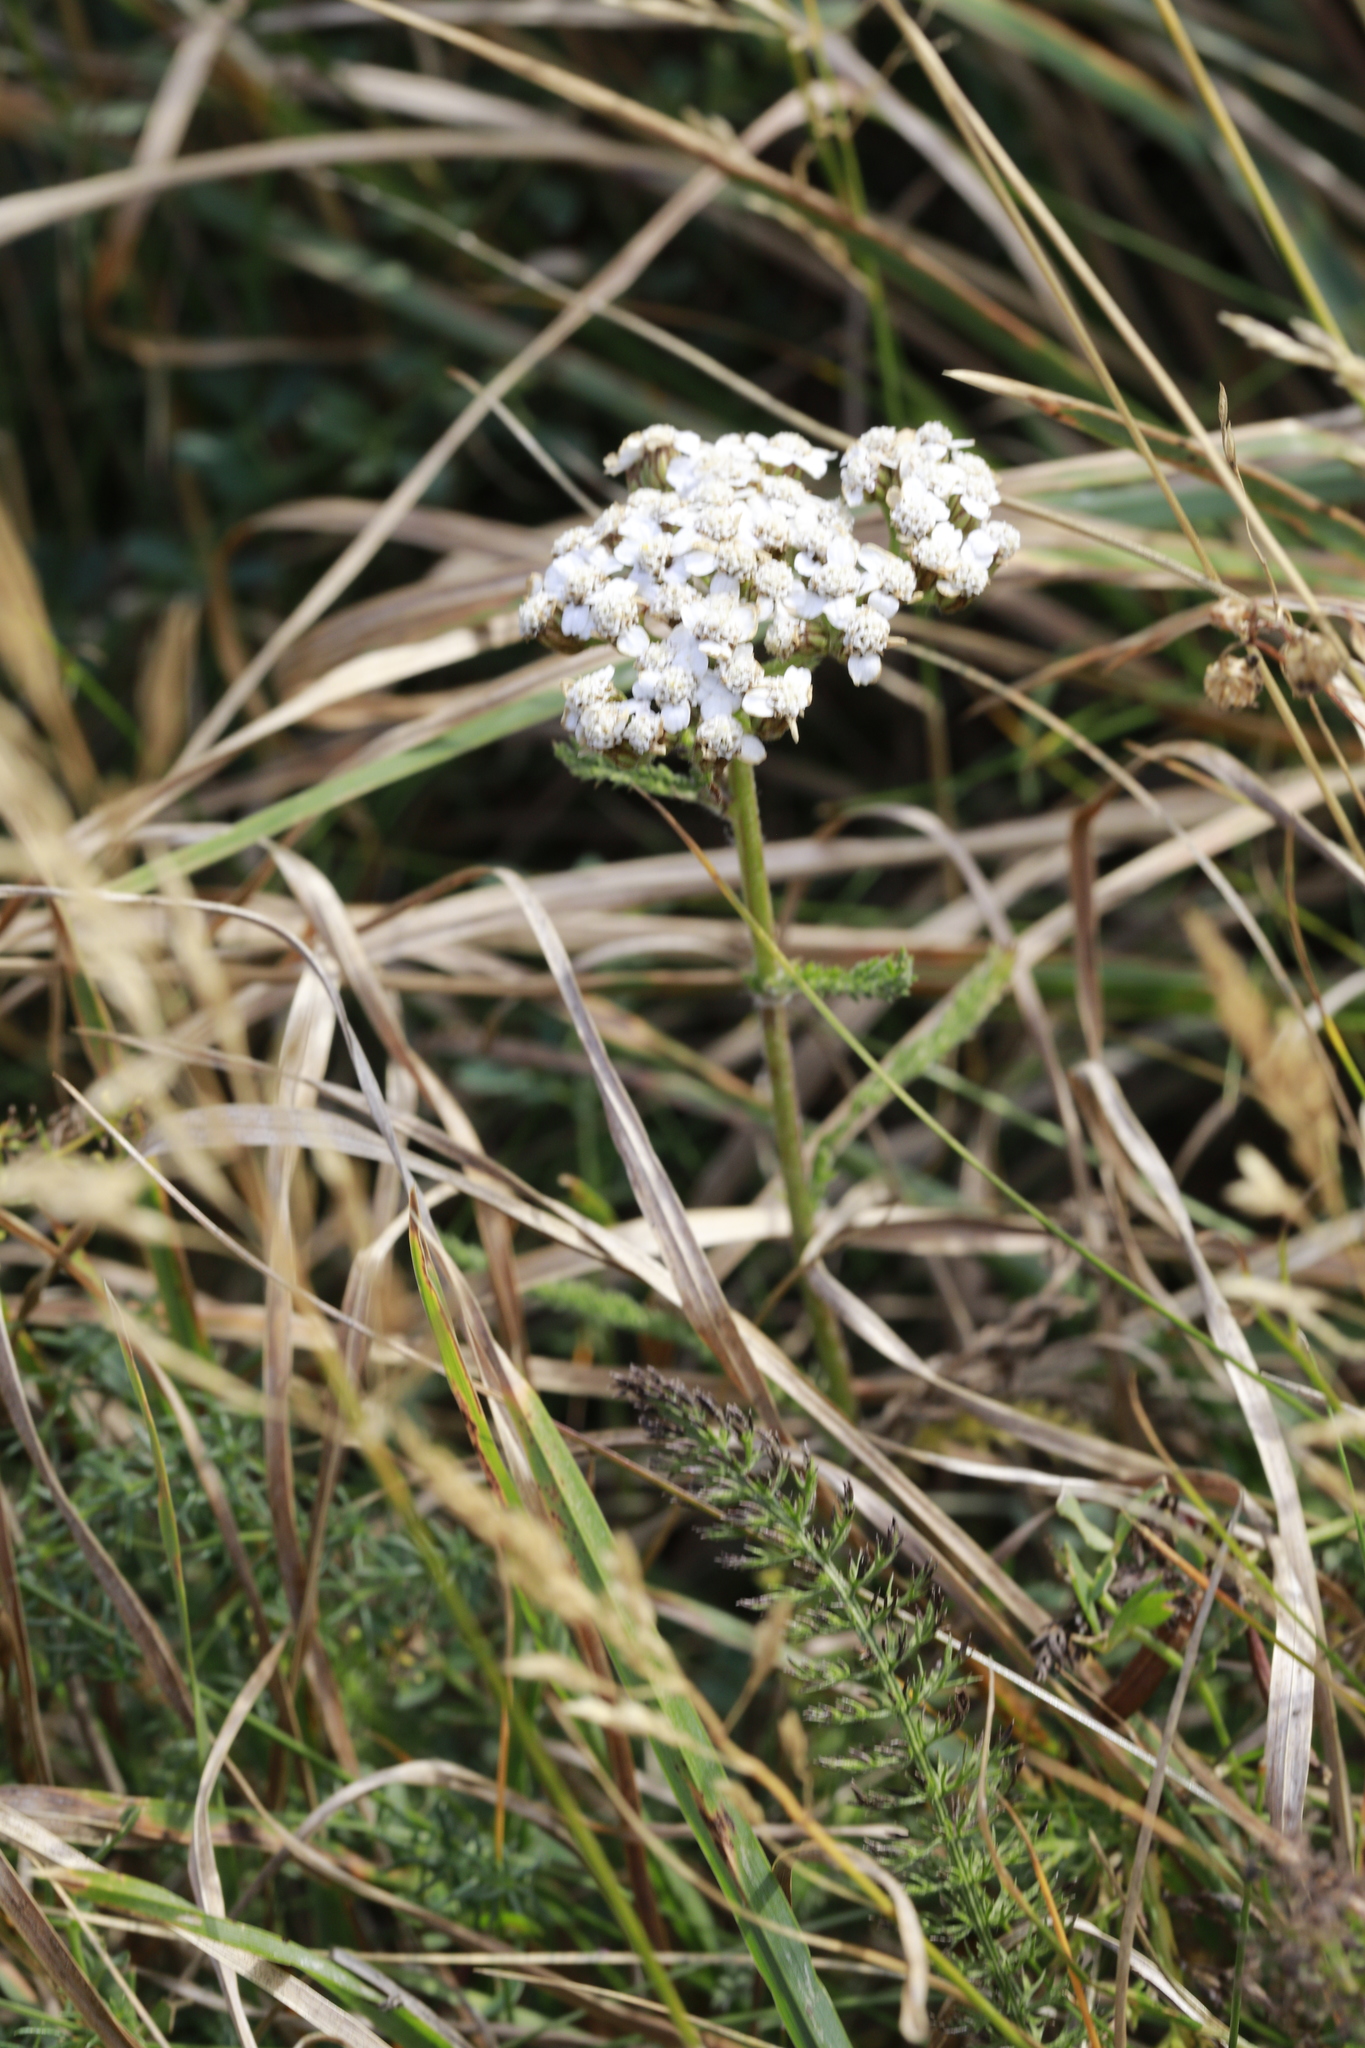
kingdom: Plantae
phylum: Tracheophyta
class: Magnoliopsida
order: Asterales
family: Asteraceae
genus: Achillea
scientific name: Achillea millefolium
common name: Yarrow
